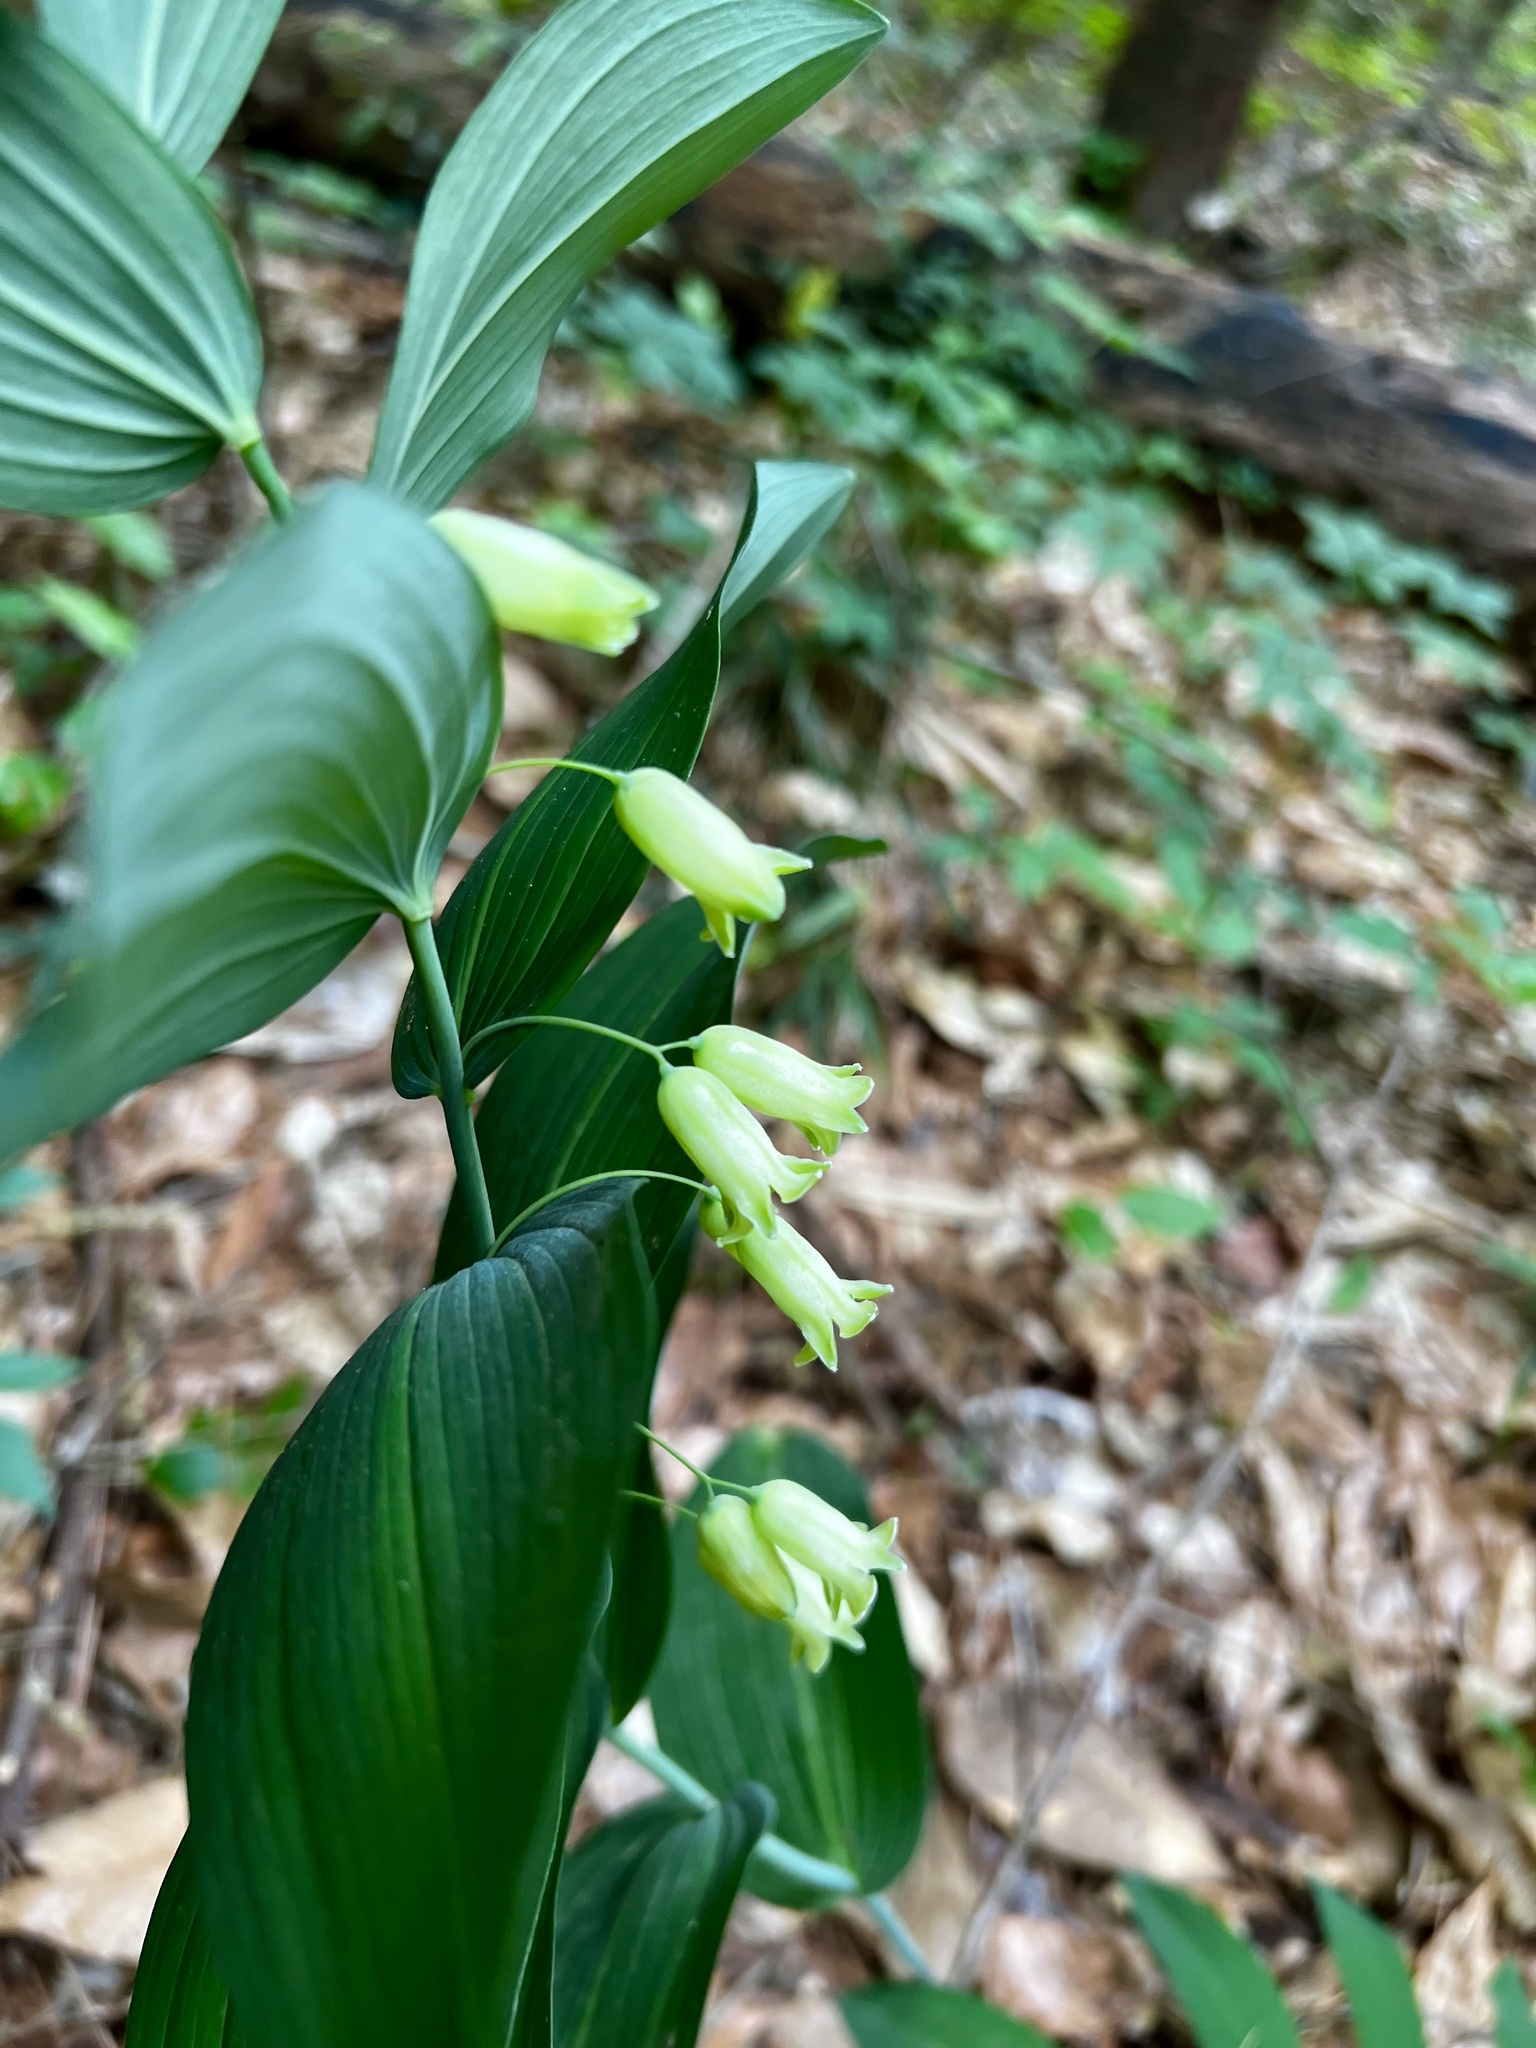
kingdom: Plantae
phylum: Tracheophyta
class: Liliopsida
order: Asparagales
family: Asparagaceae
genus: Polygonatum
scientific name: Polygonatum biflorum
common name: American solomon's-seal
